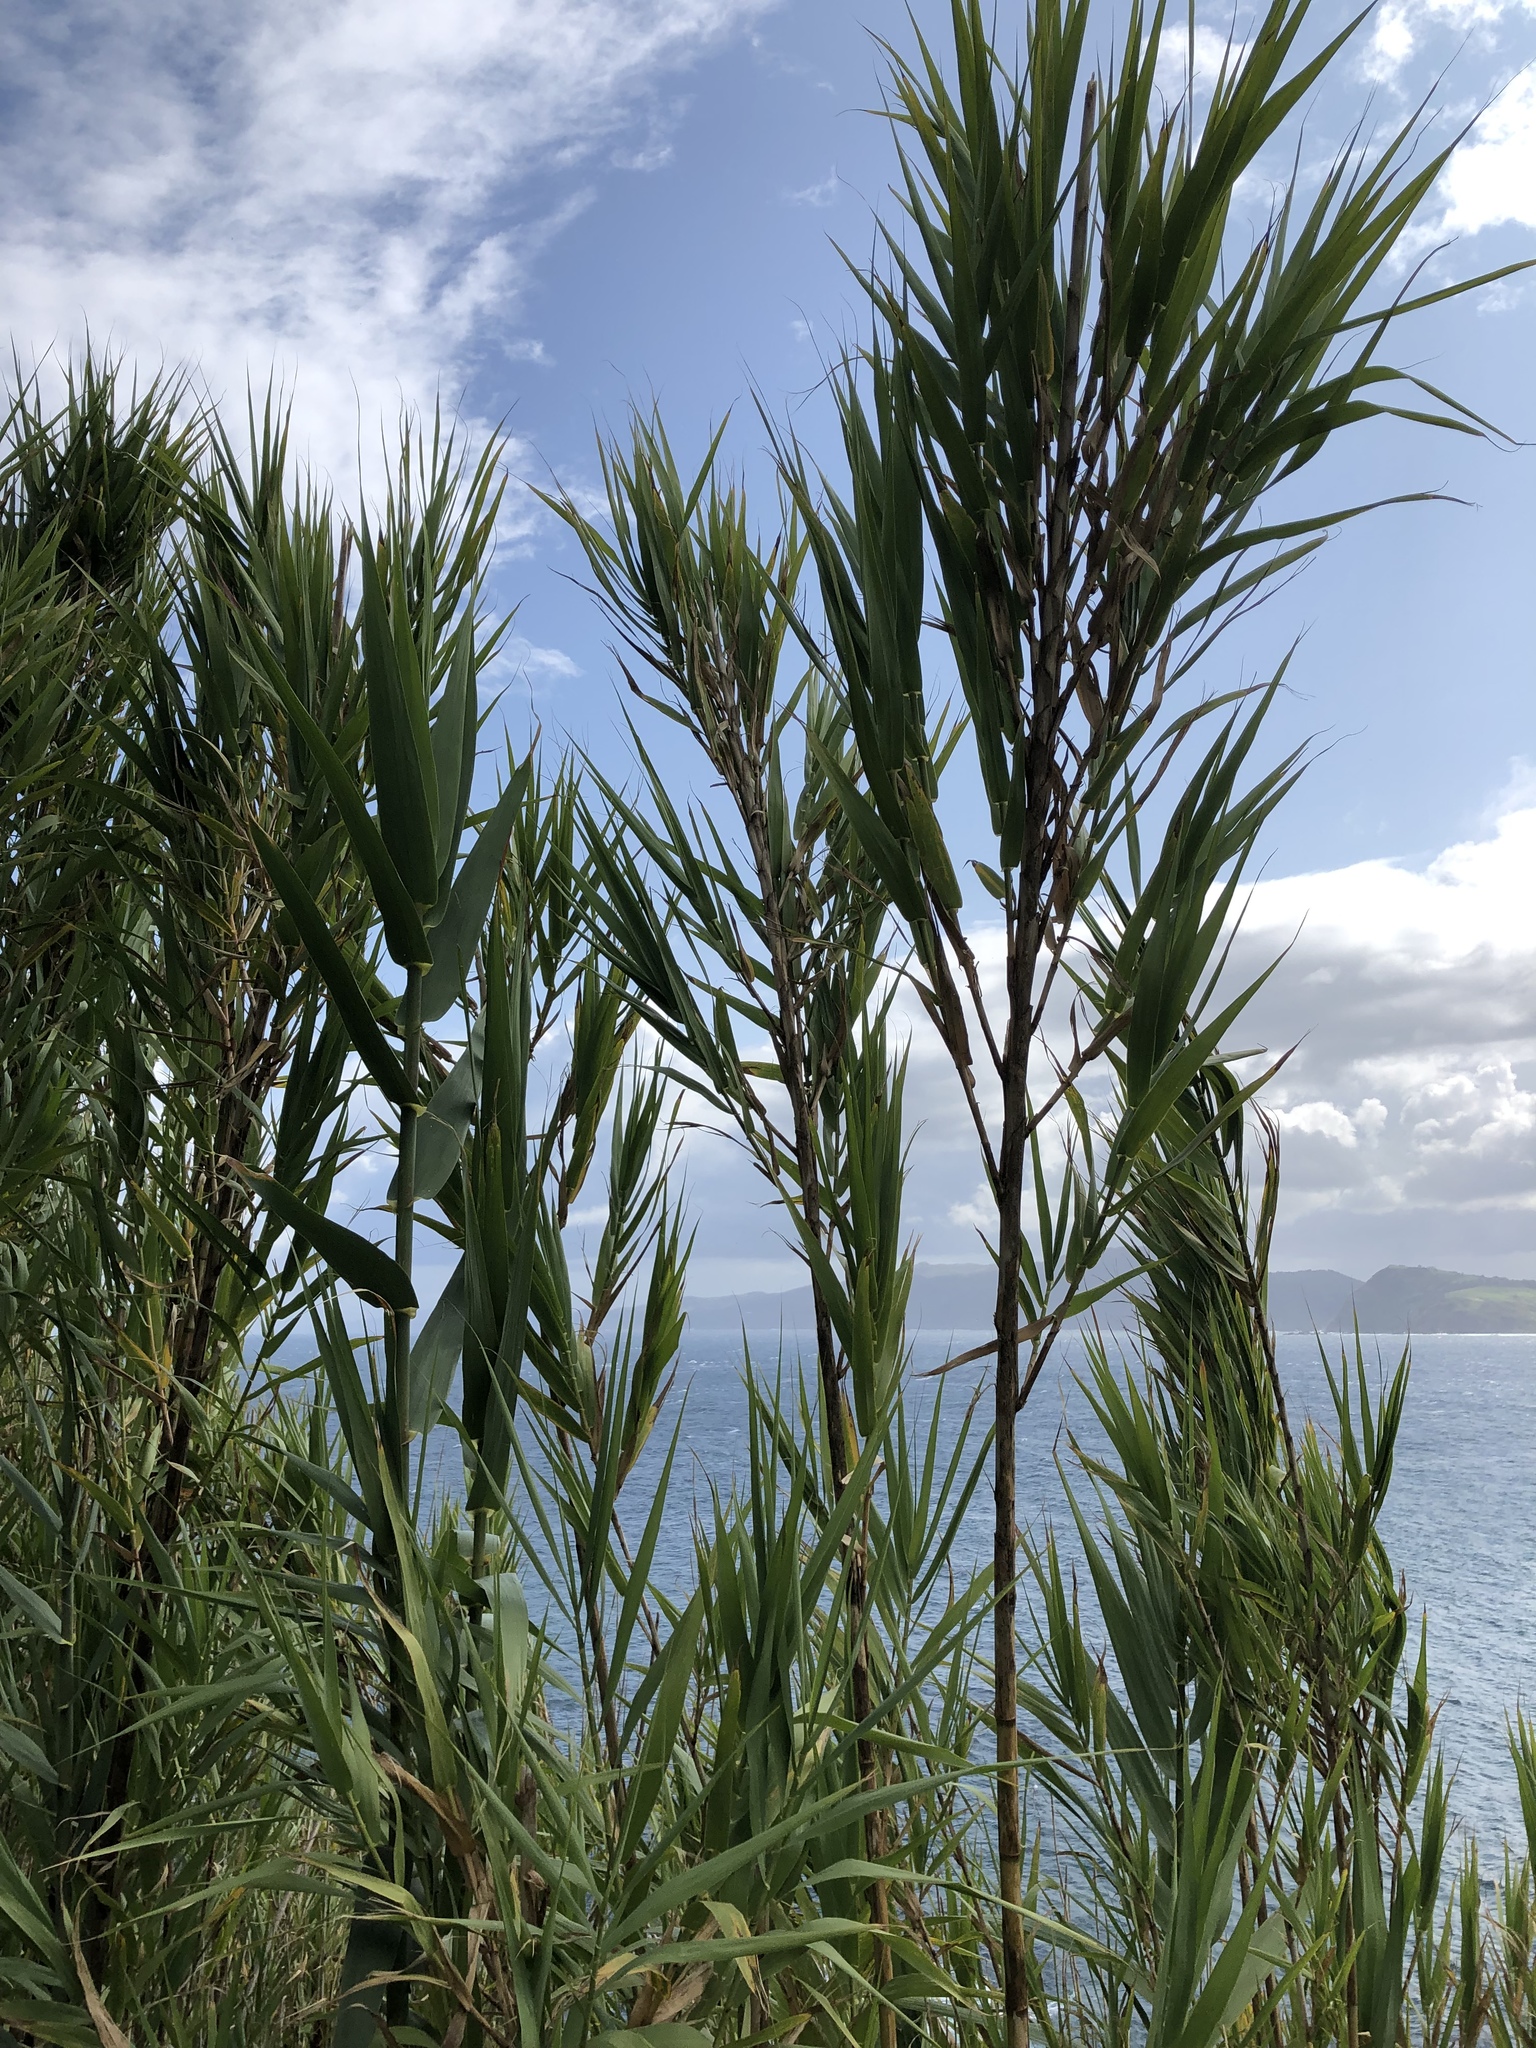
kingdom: Plantae
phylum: Tracheophyta
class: Liliopsida
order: Poales
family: Poaceae
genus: Phragmites
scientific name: Phragmites australis
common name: Common reed
